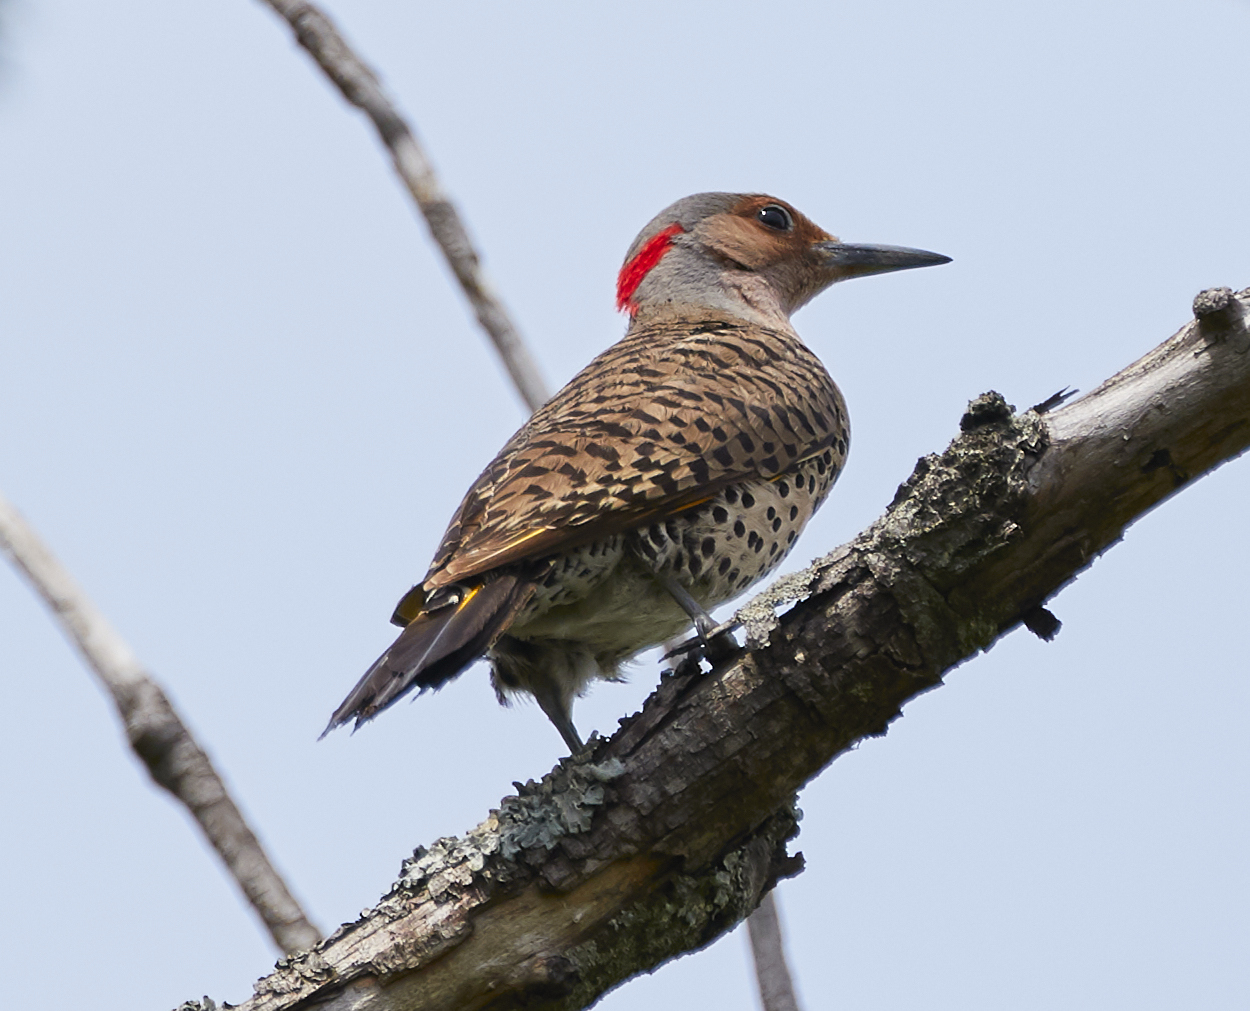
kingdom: Animalia
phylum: Chordata
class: Aves
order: Piciformes
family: Picidae
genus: Colaptes
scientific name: Colaptes auratus
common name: Northern flicker
